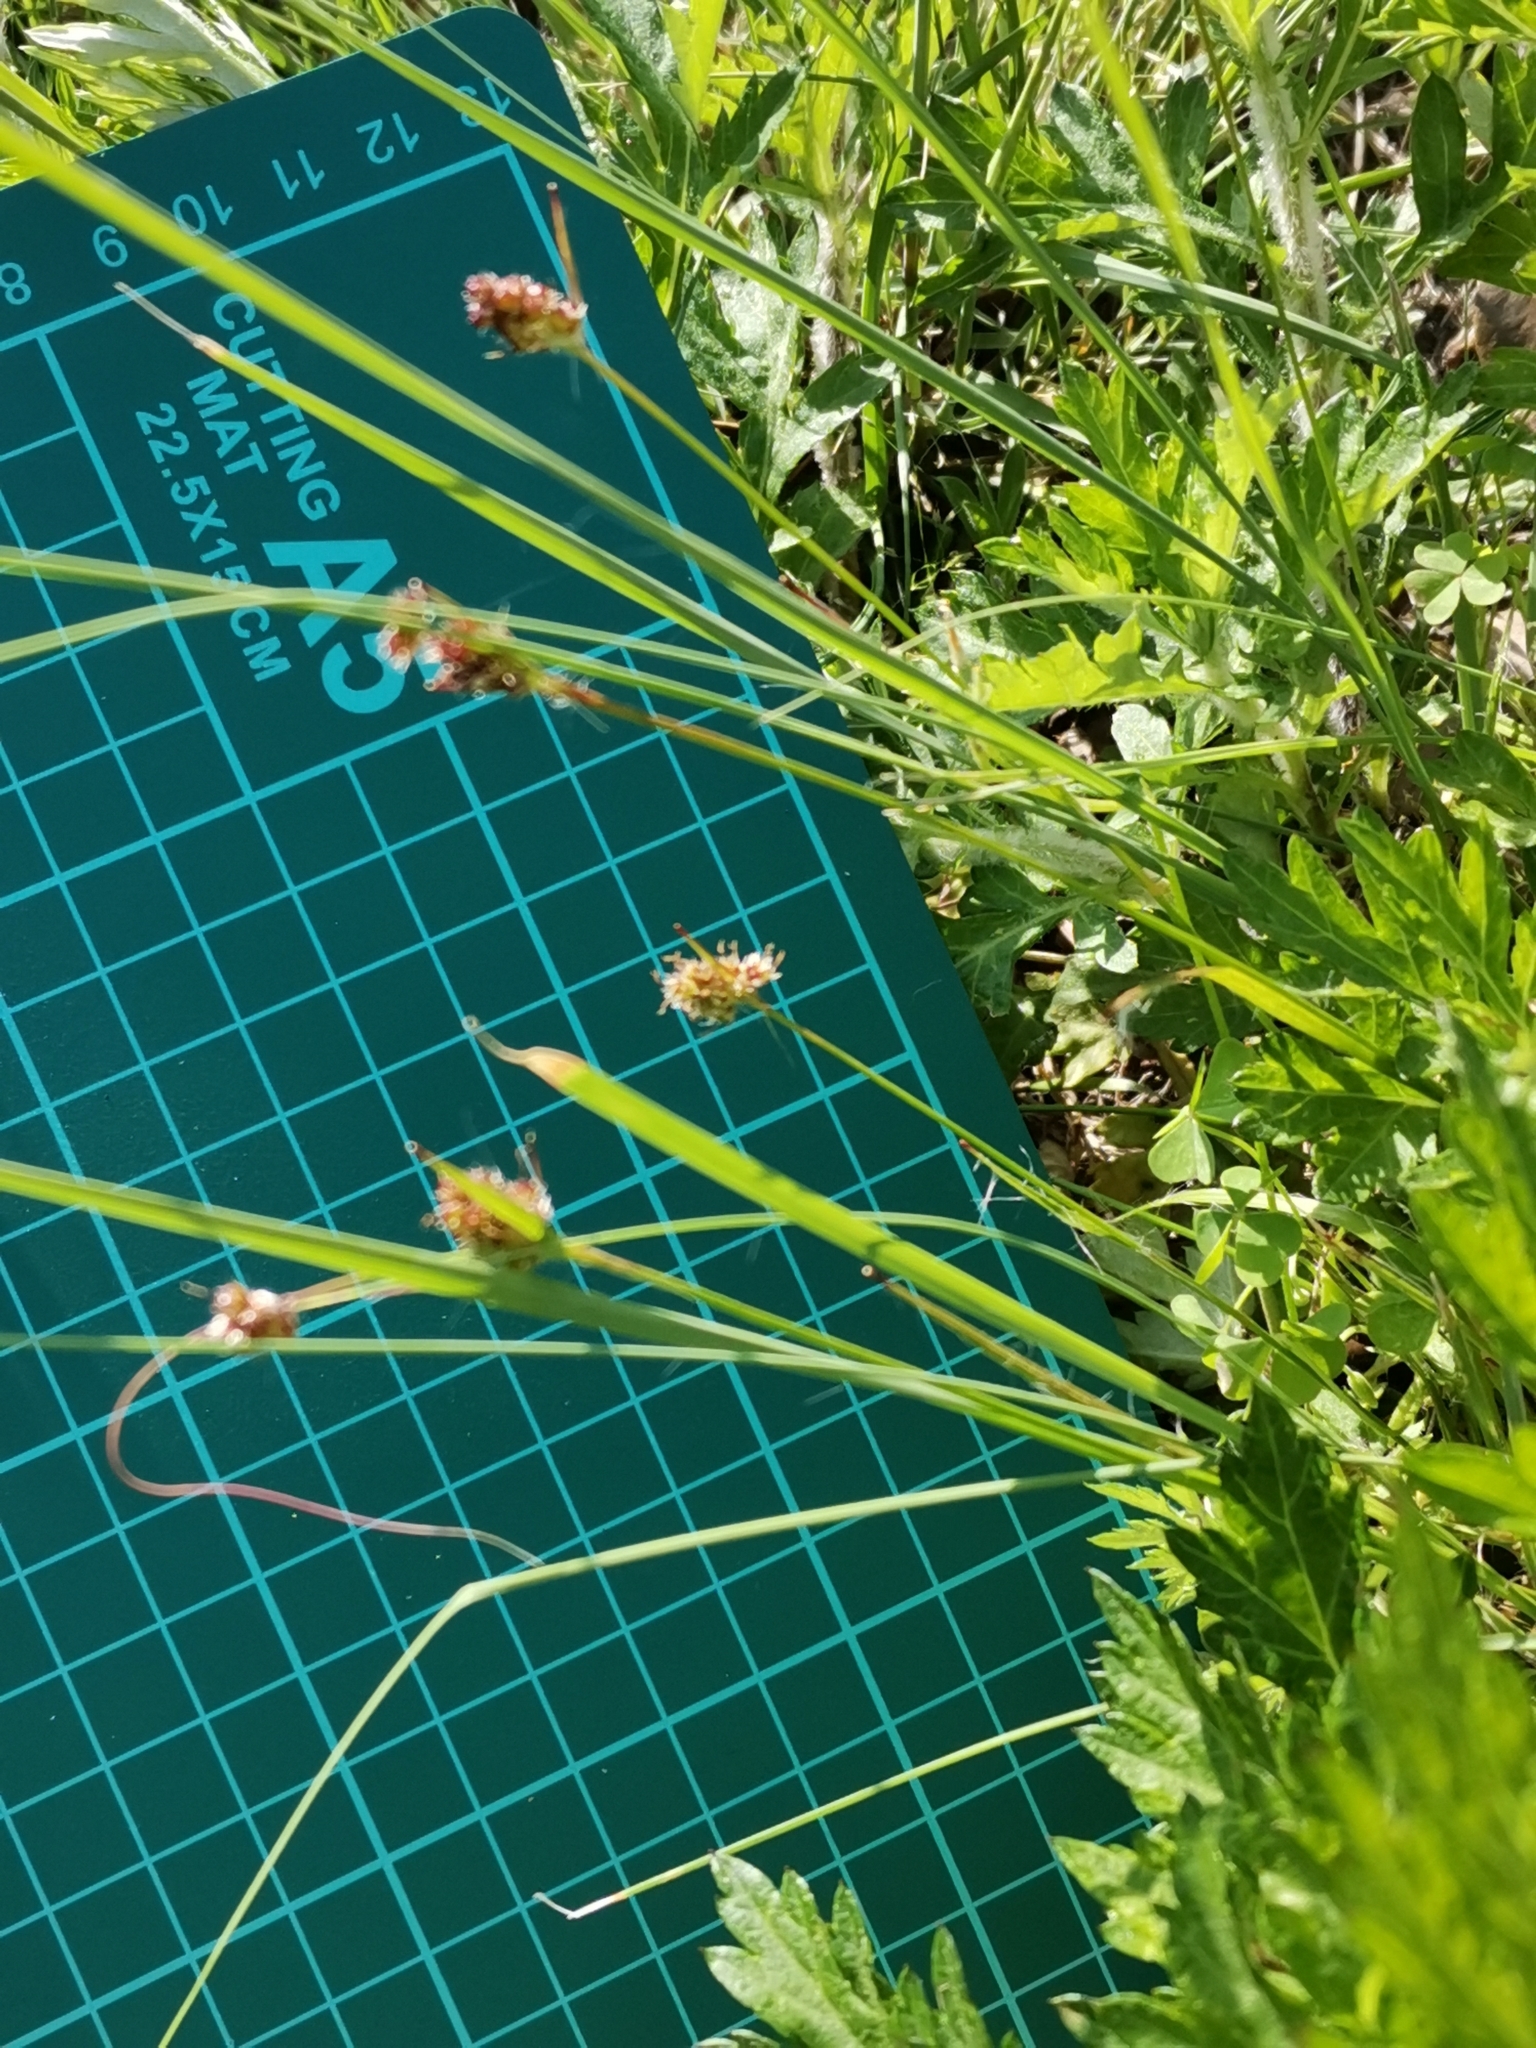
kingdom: Plantae
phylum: Tracheophyta
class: Liliopsida
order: Poales
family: Juncaceae
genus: Luzula
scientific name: Luzula capitata
